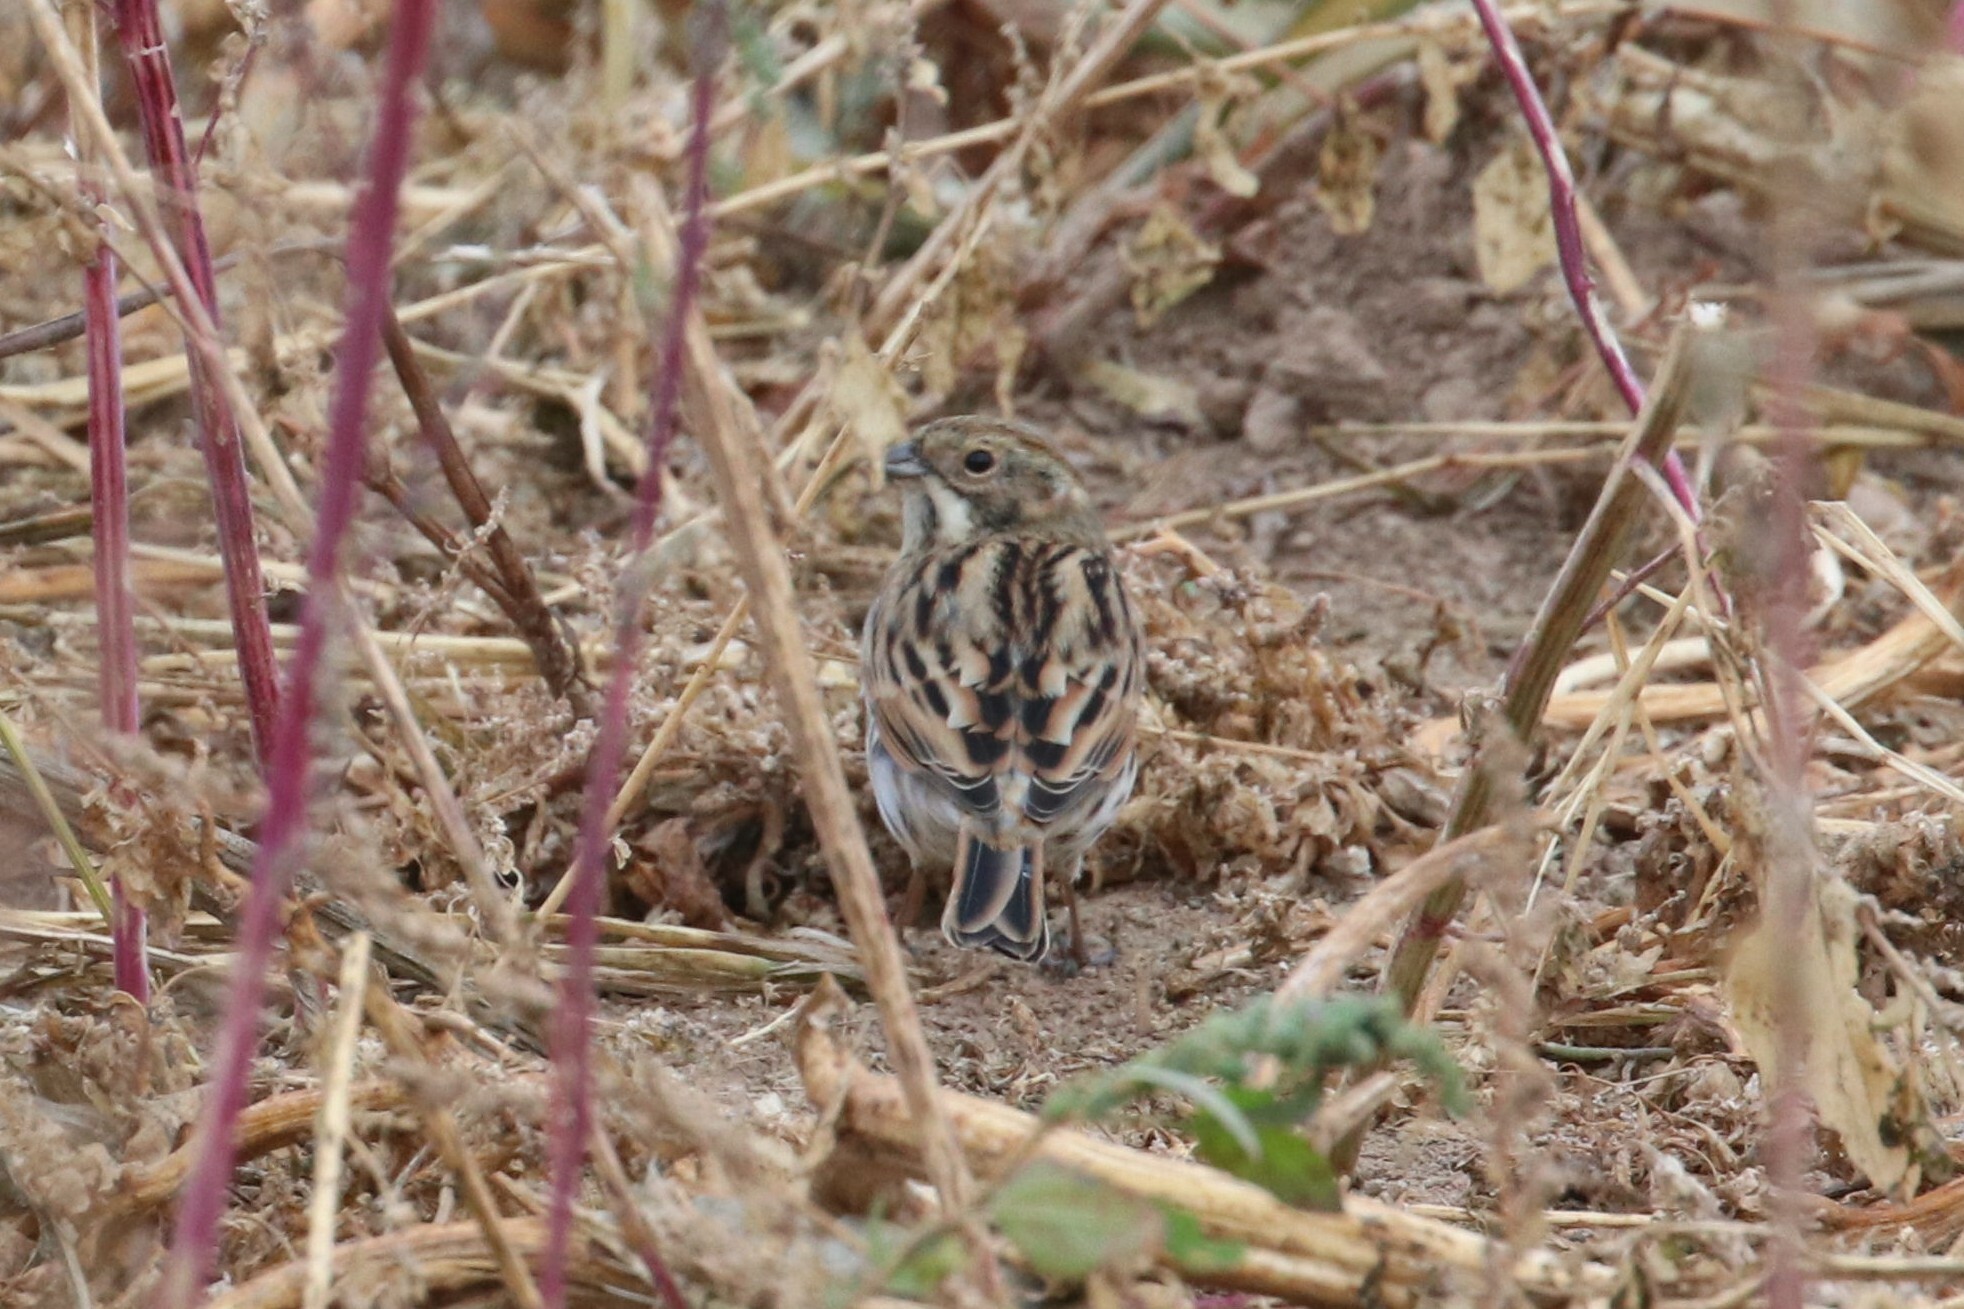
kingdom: Animalia
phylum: Chordata
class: Aves
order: Passeriformes
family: Emberizidae
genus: Emberiza
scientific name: Emberiza schoeniclus
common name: Reed bunting
